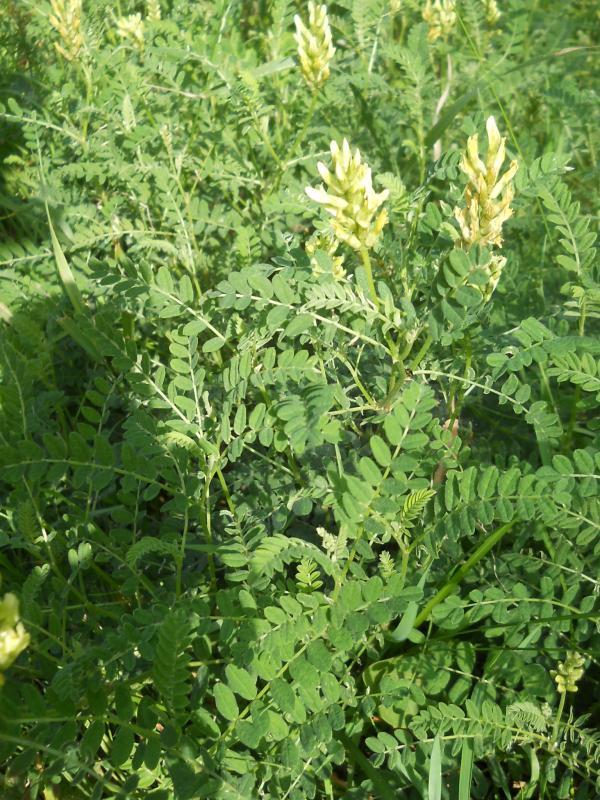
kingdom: Plantae
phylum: Tracheophyta
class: Magnoliopsida
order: Fabales
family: Fabaceae
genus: Astragalus
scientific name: Astragalus glycyphyllos
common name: Wild liquorice
